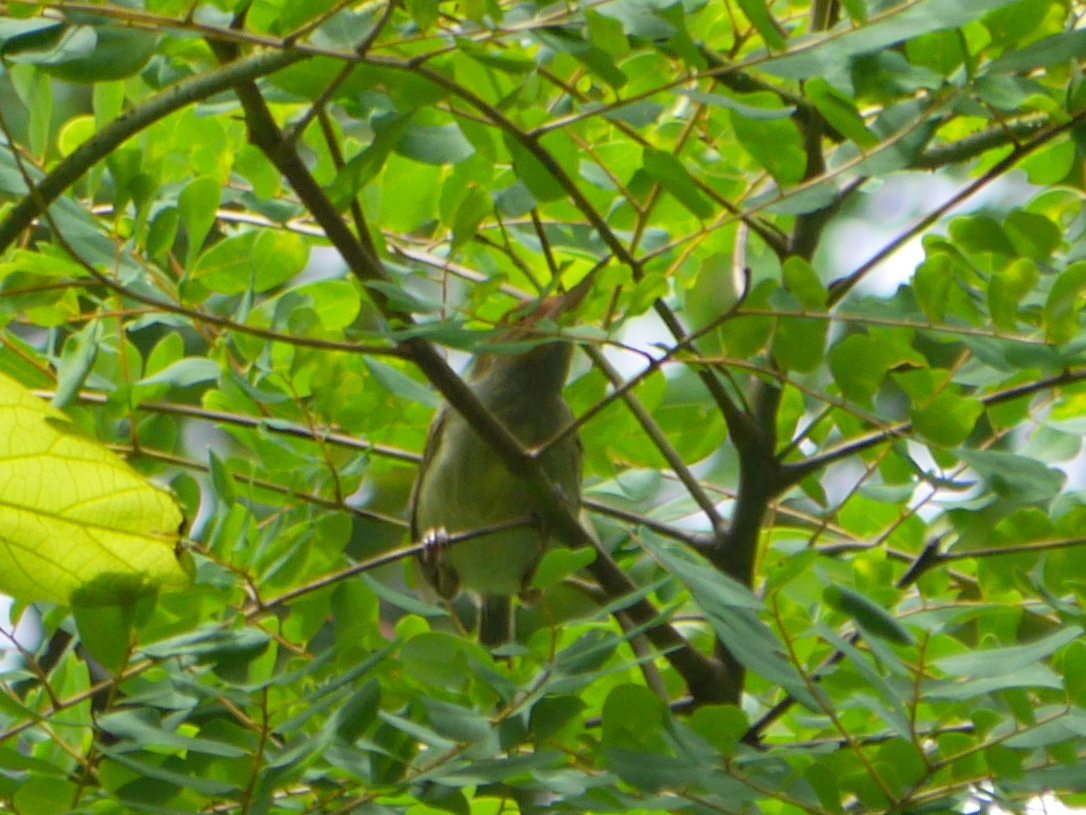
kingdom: Animalia
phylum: Chordata
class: Aves
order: Passeriformes
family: Cisticolidae
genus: Orthotomus
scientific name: Orthotomus sepium
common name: Olive-backed tailorbird
